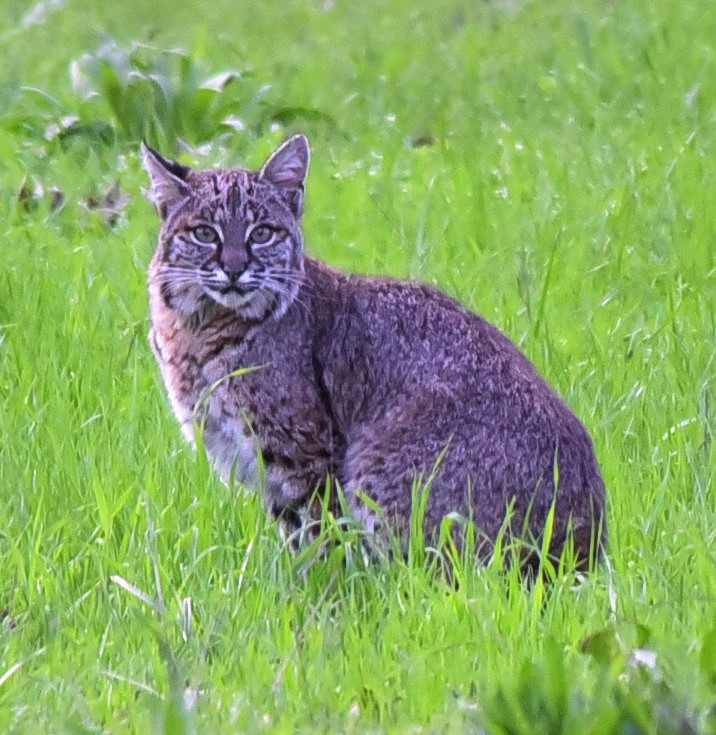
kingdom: Animalia
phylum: Chordata
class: Mammalia
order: Carnivora
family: Felidae
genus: Lynx
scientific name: Lynx rufus
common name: Bobcat
